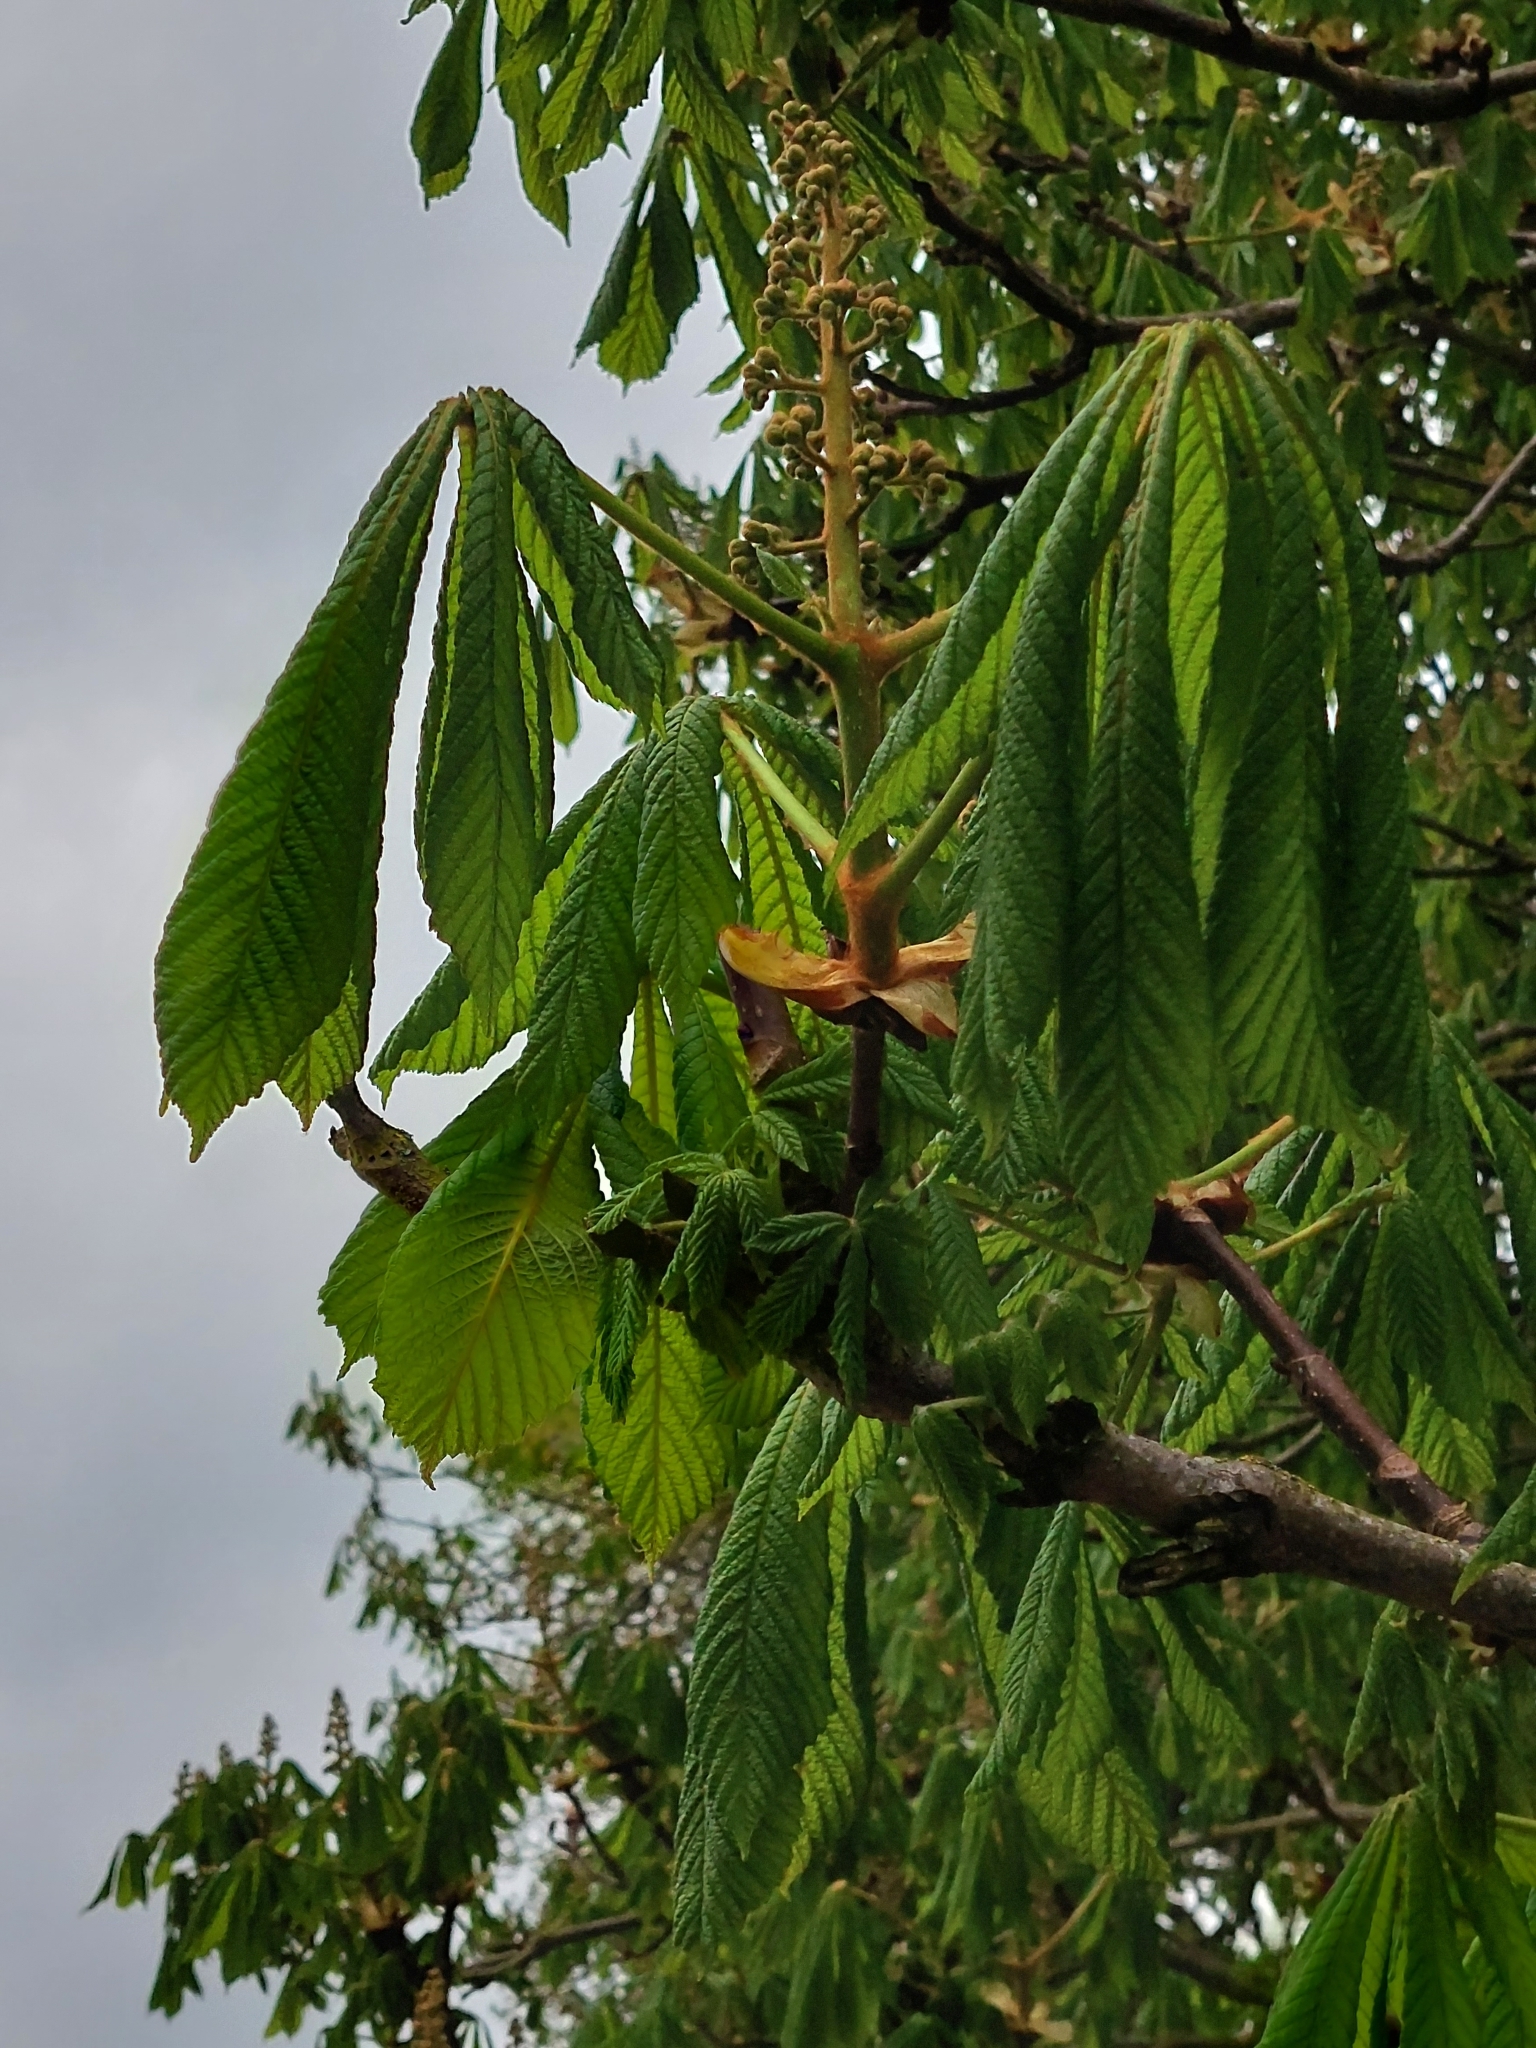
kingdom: Plantae
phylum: Tracheophyta
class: Magnoliopsida
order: Sapindales
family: Sapindaceae
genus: Aesculus
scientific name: Aesculus hippocastanum
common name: Horse-chestnut
